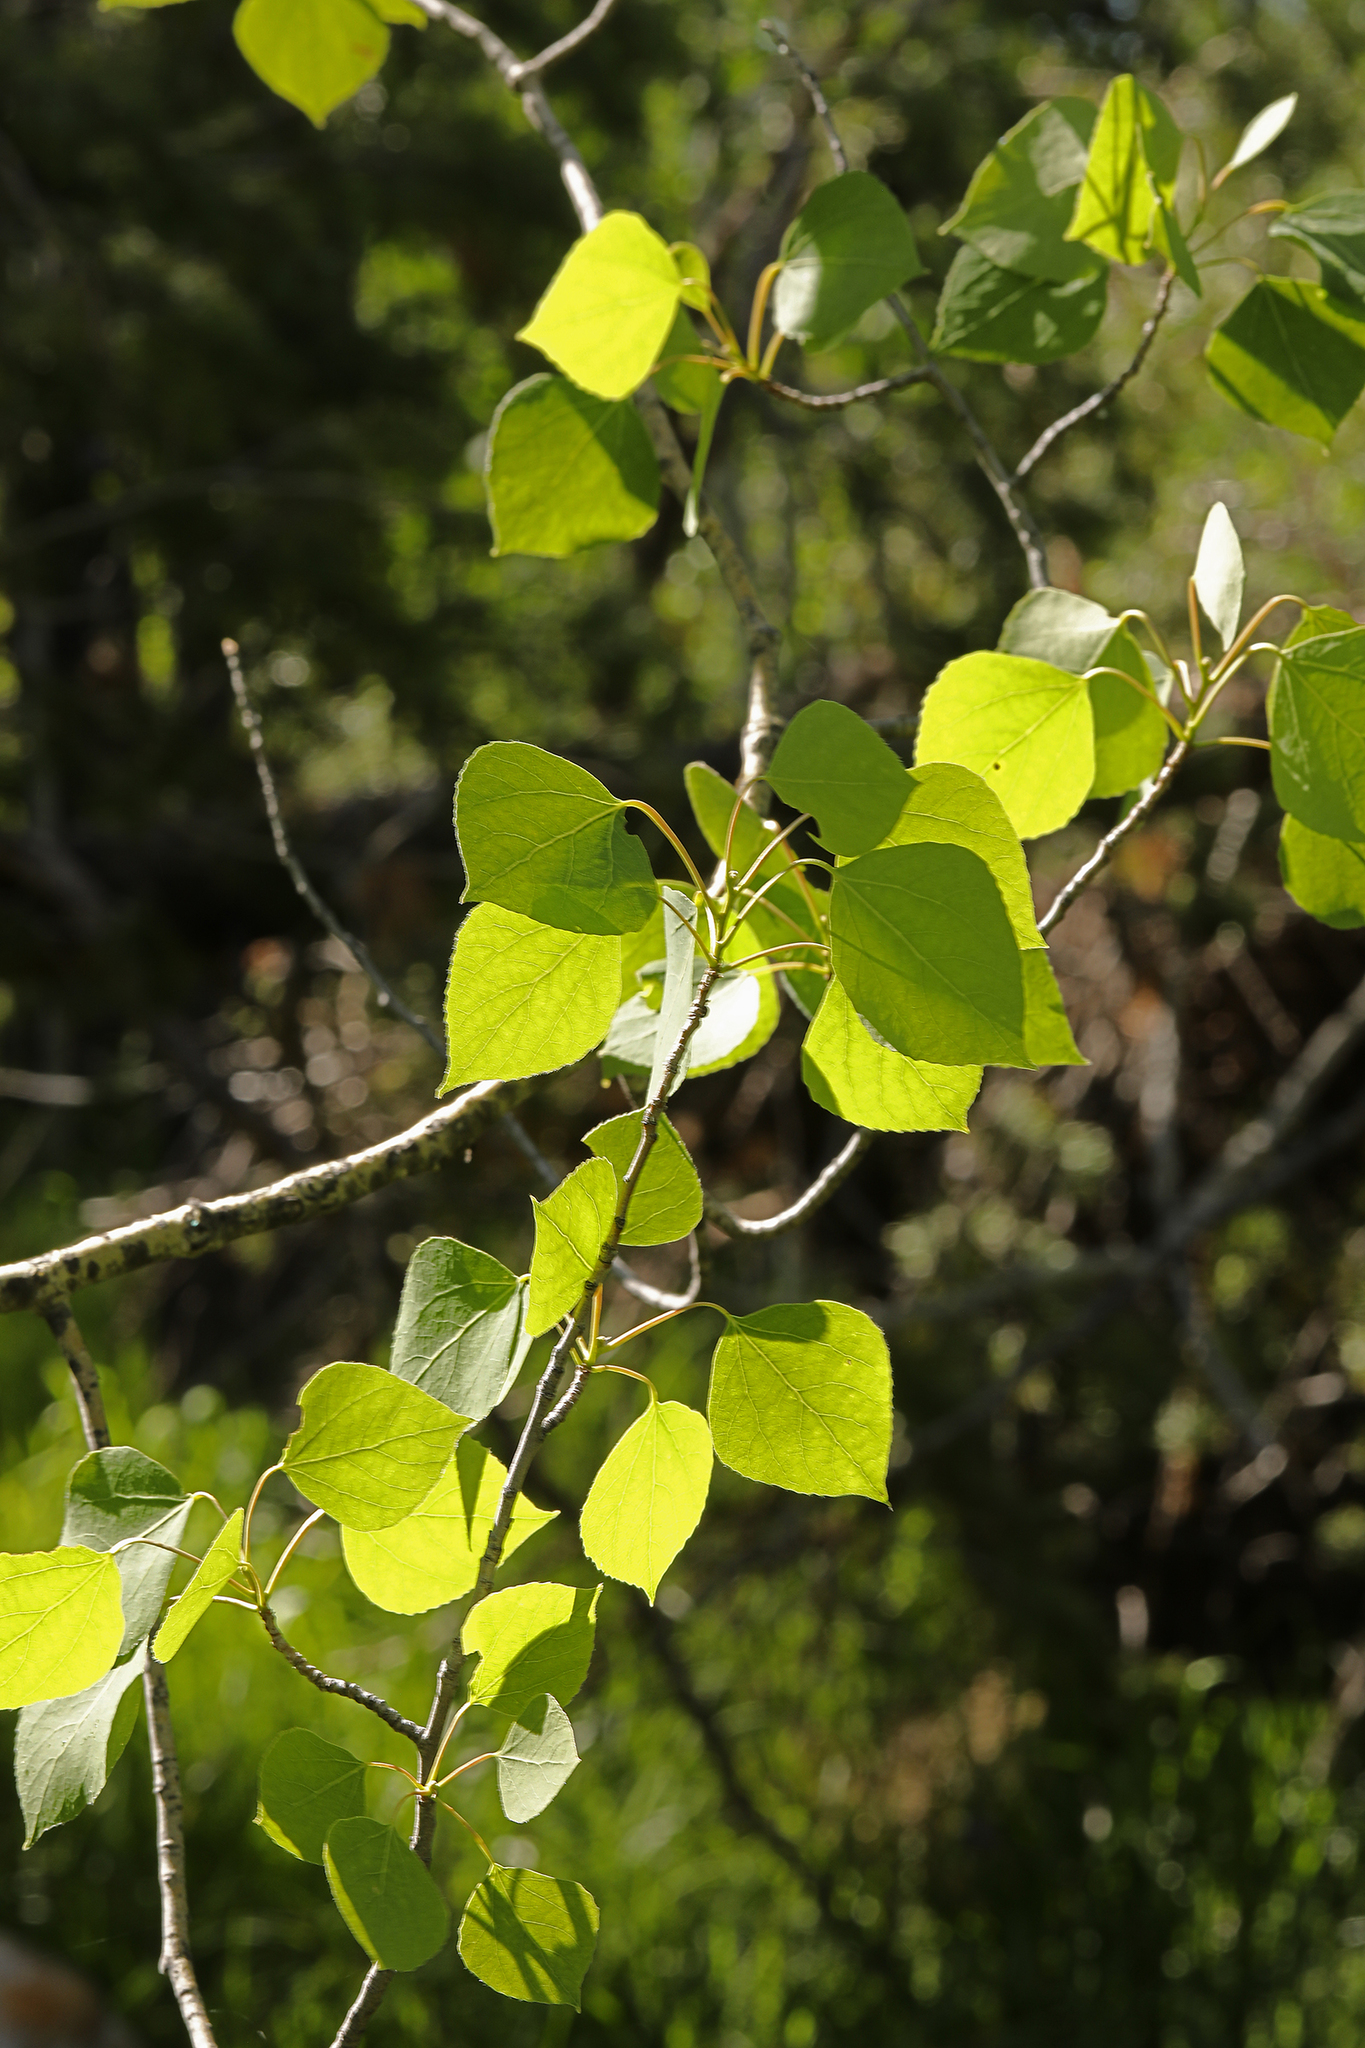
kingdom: Plantae
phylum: Tracheophyta
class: Magnoliopsida
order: Malpighiales
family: Salicaceae
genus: Populus
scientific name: Populus tremuloides
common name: Quaking aspen
